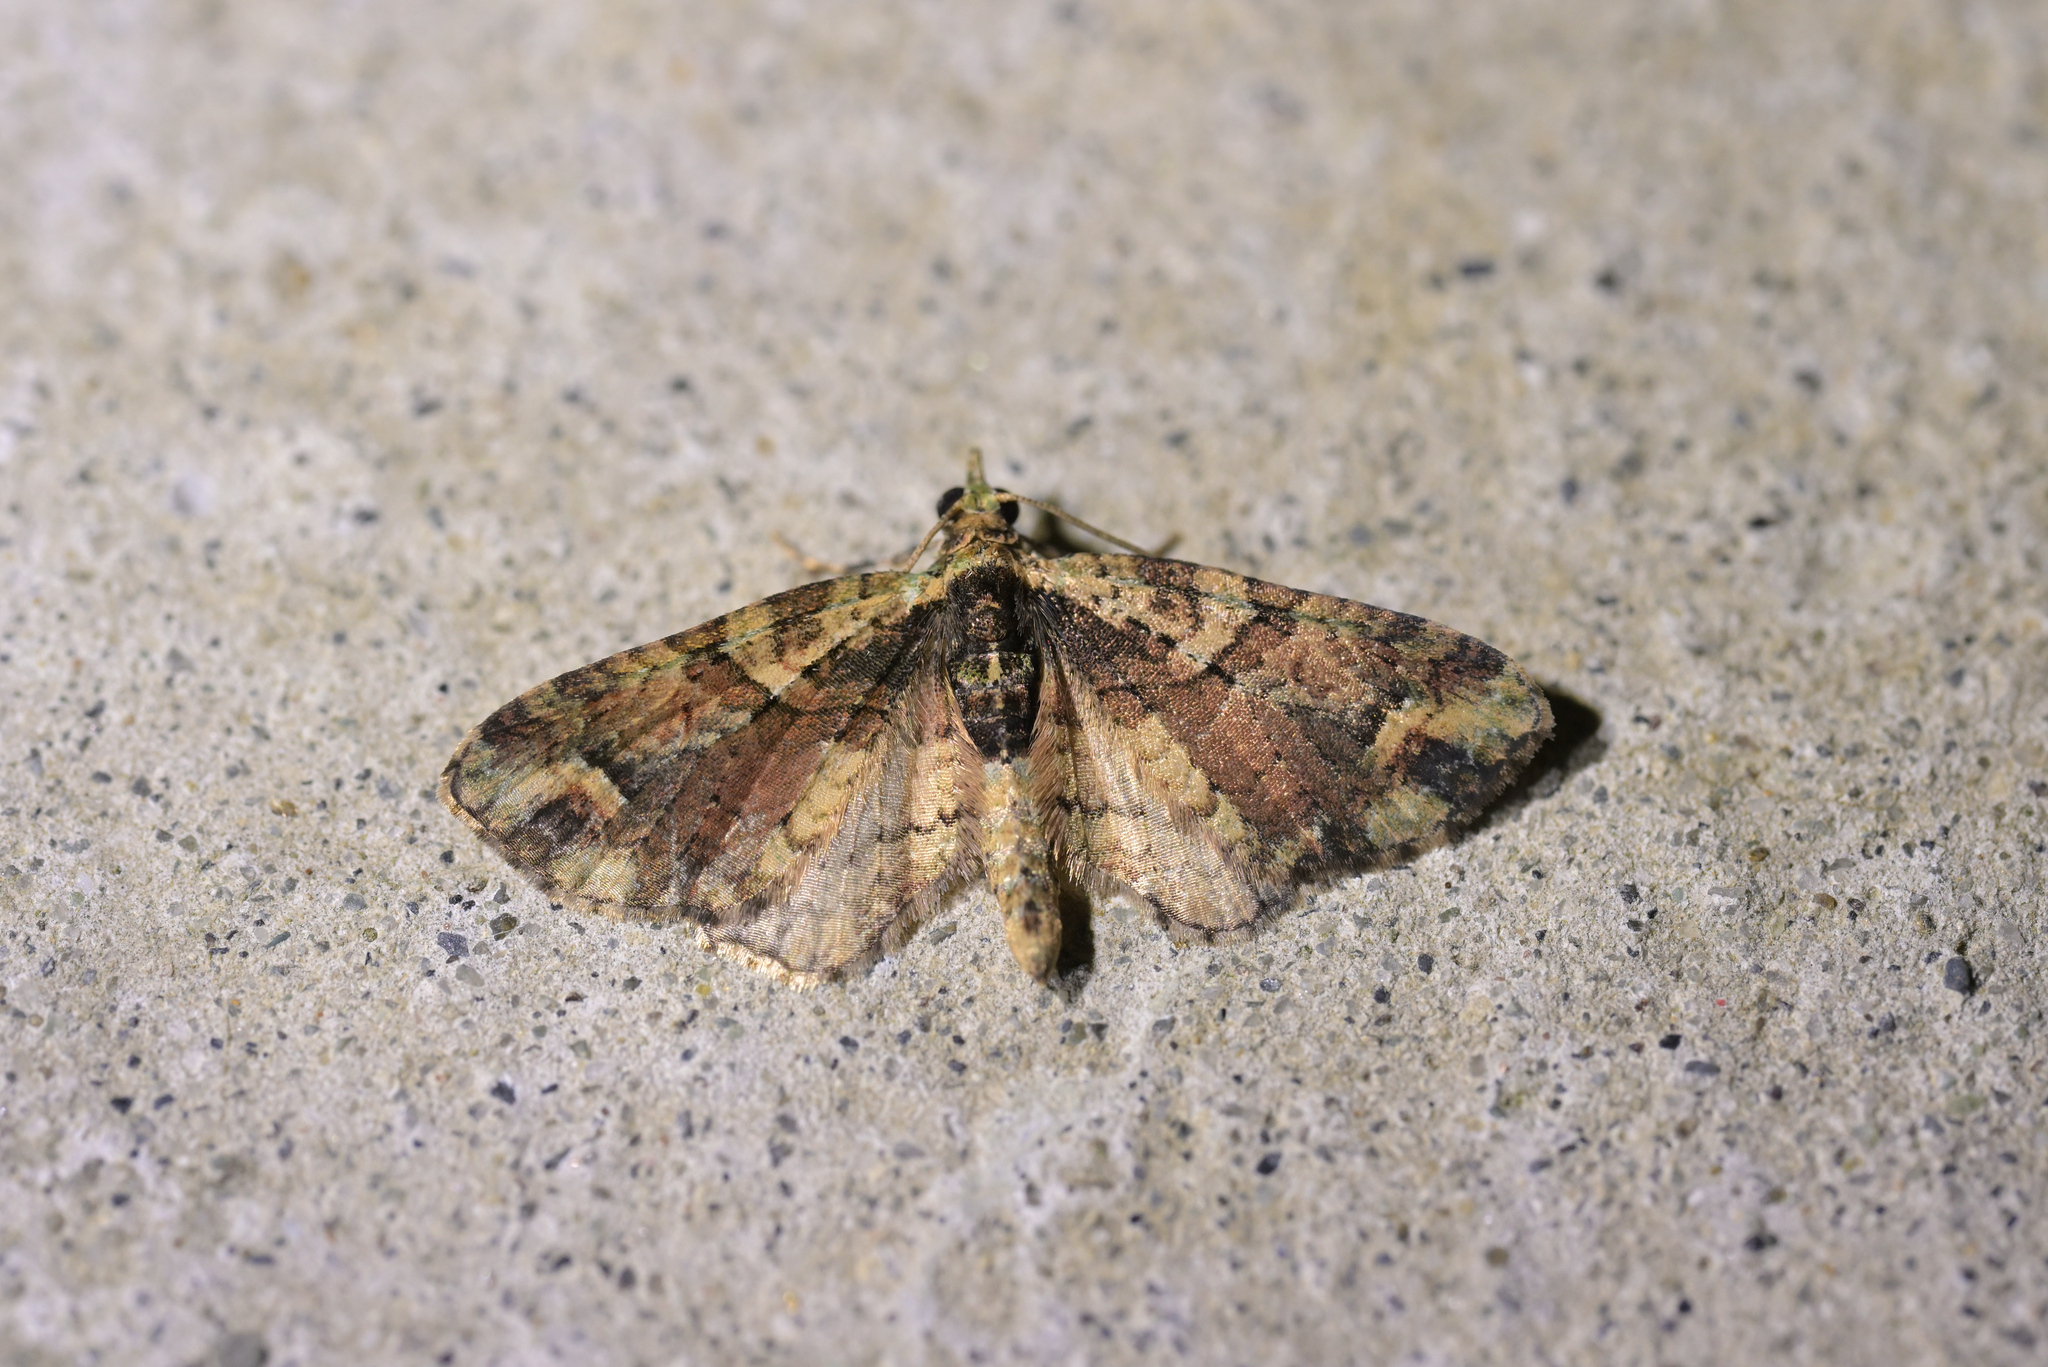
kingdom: Animalia
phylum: Arthropoda
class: Insecta
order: Lepidoptera
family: Geometridae
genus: Idaea
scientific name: Idaea mutanda
